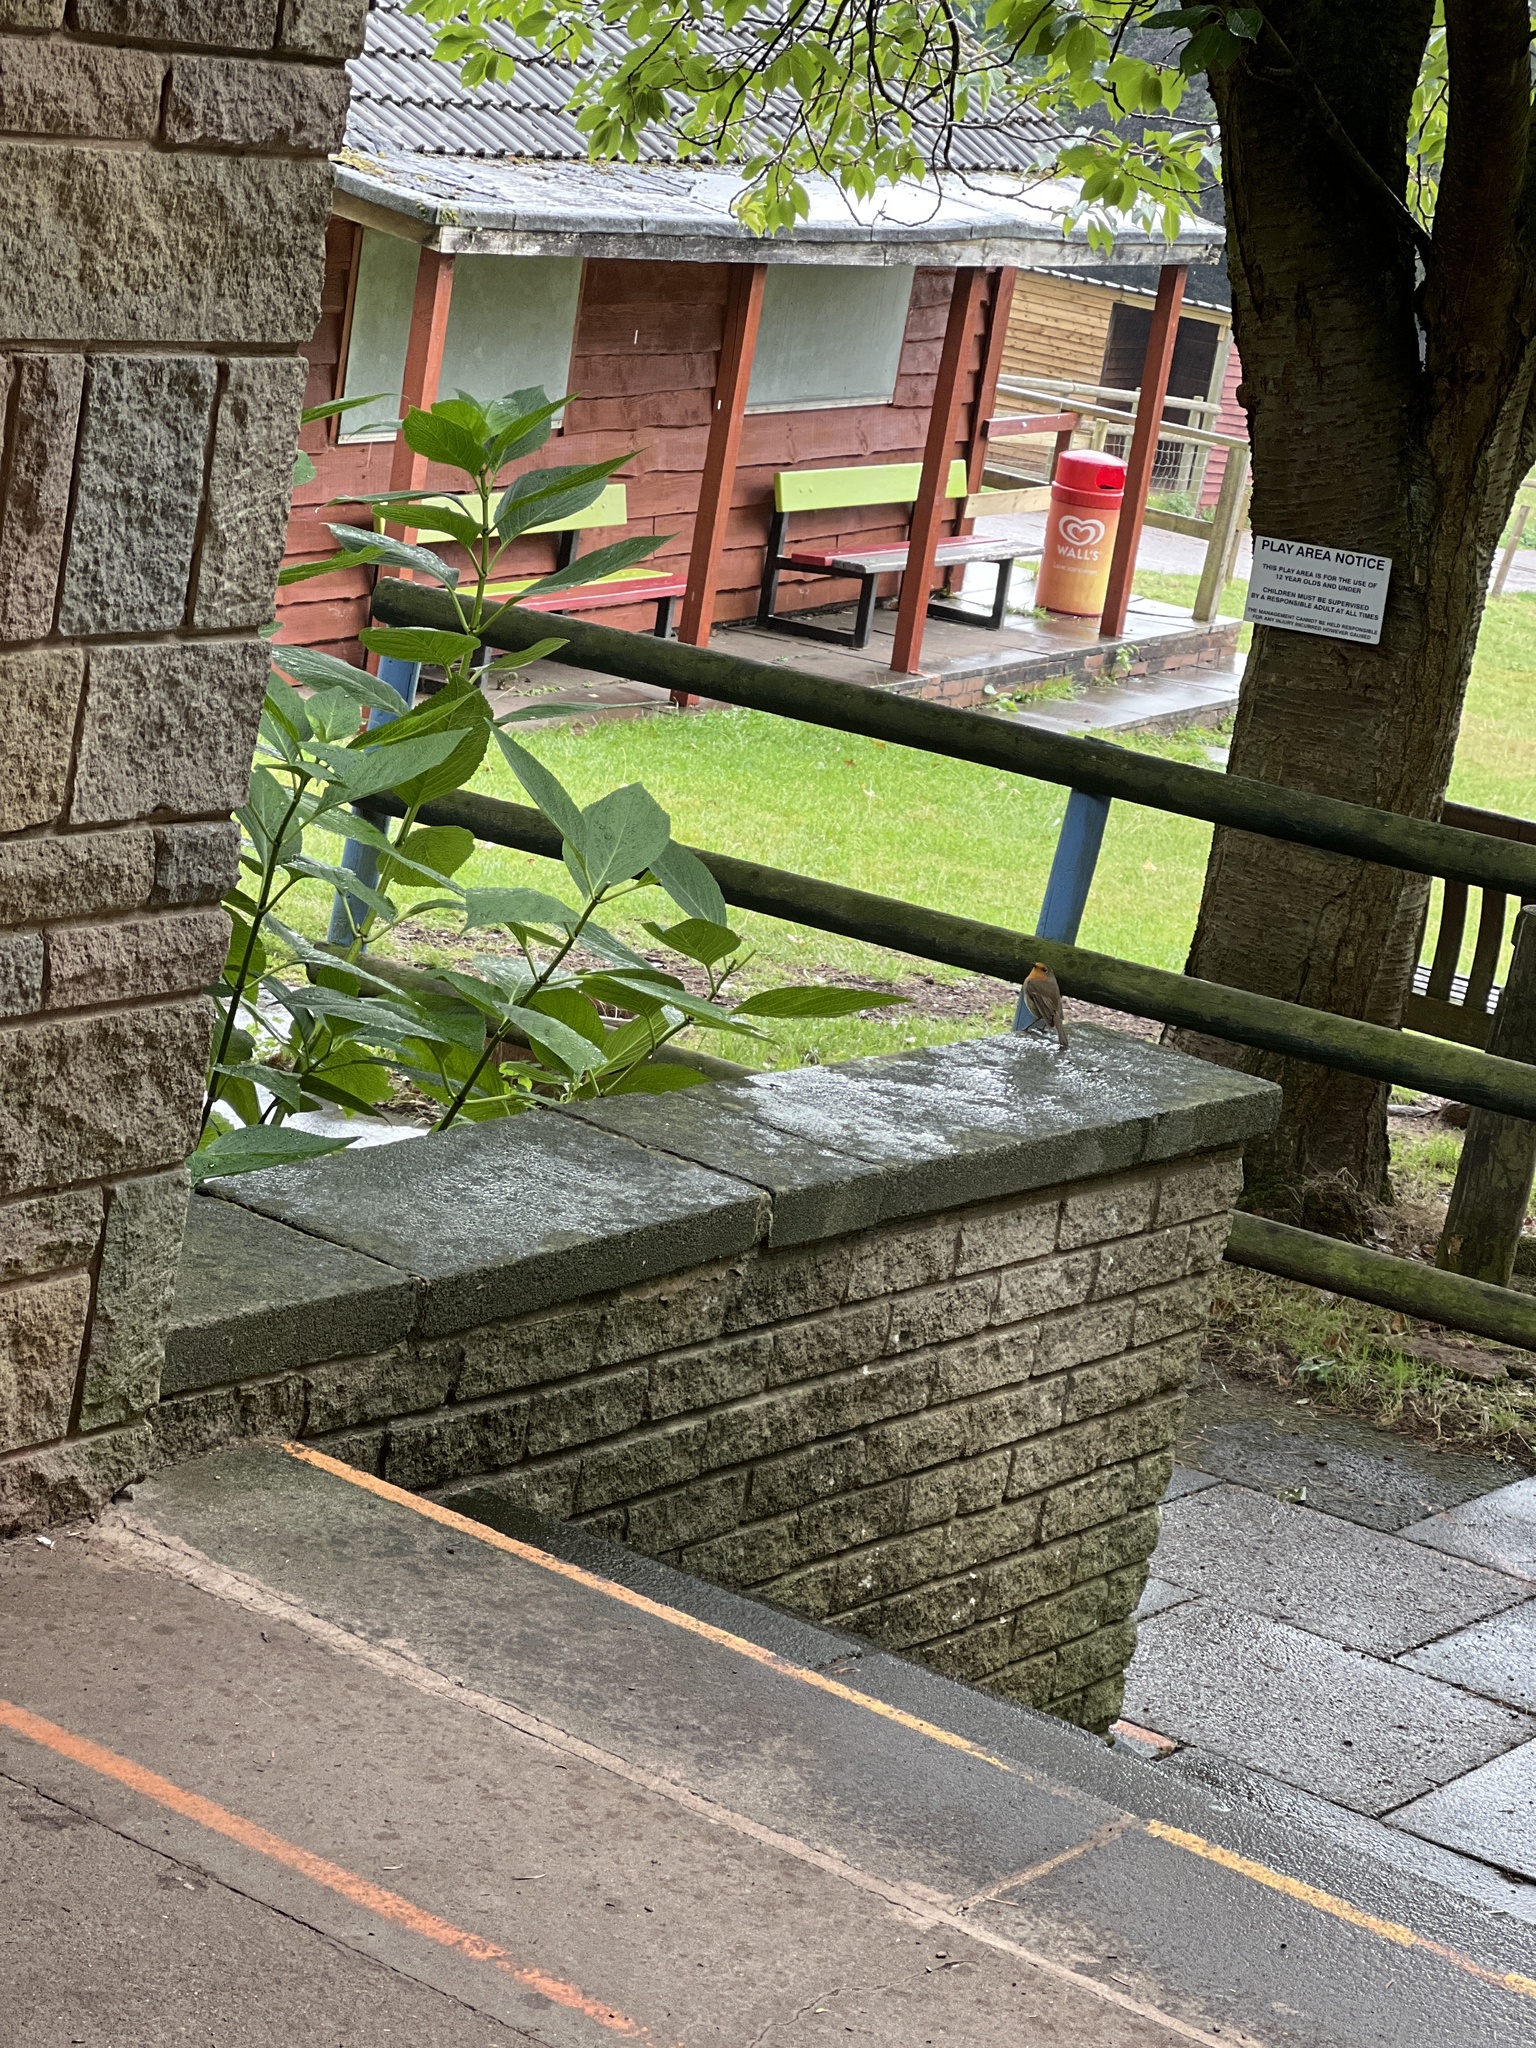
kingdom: Animalia
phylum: Chordata
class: Aves
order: Passeriformes
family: Muscicapidae
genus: Erithacus
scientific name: Erithacus rubecula
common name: European robin
